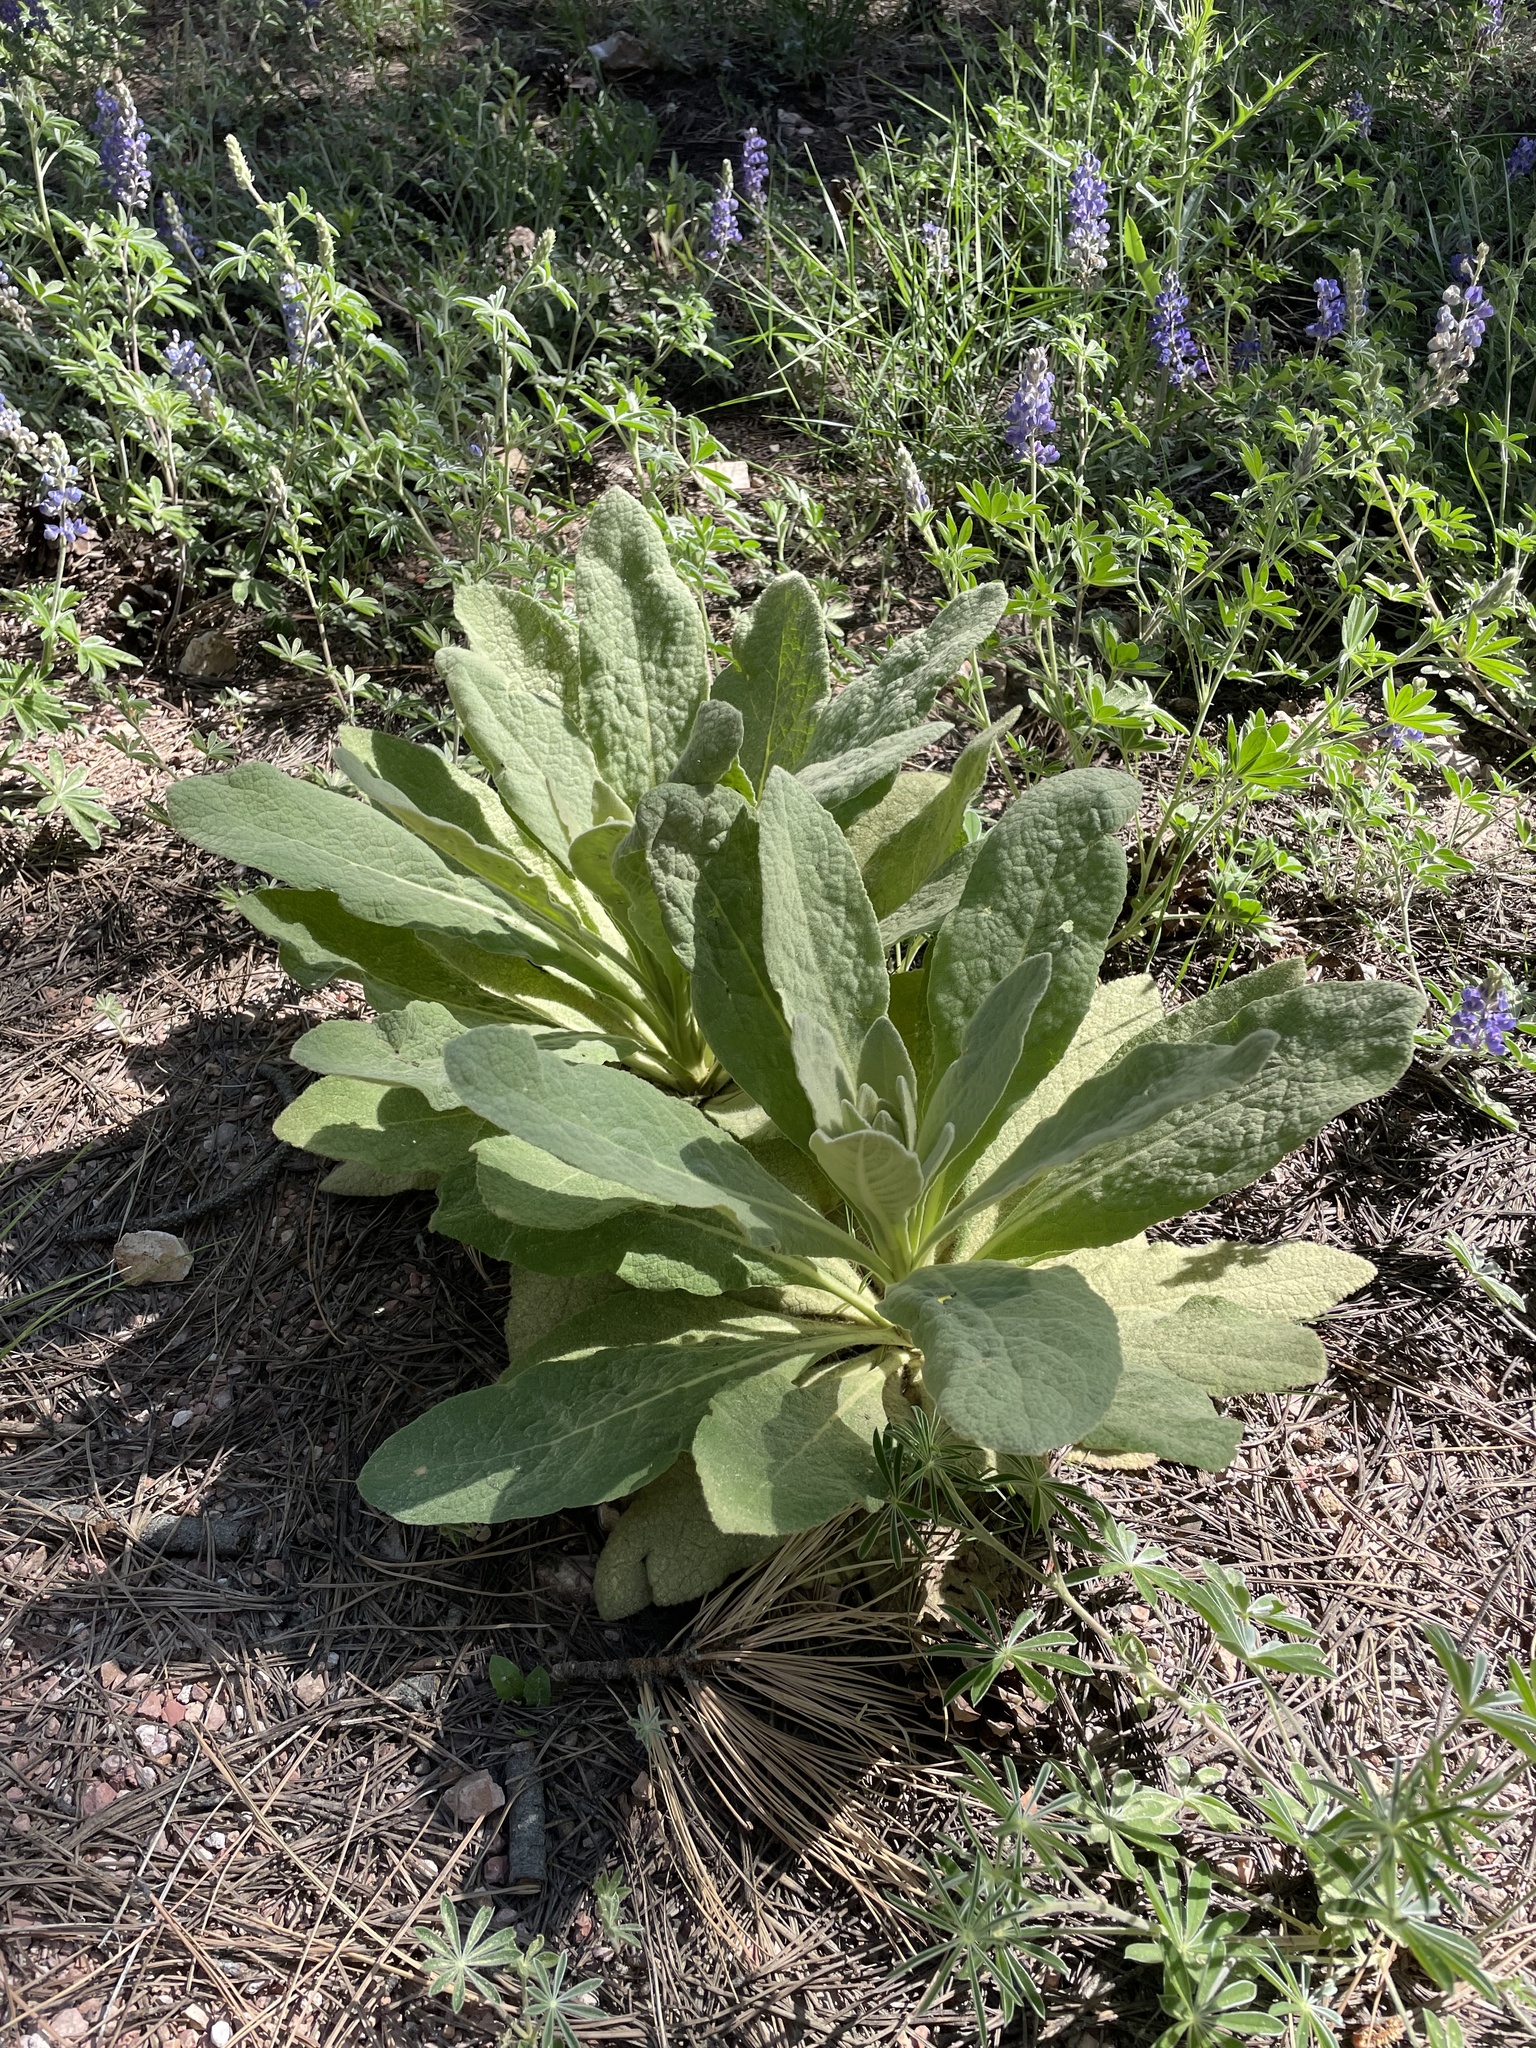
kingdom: Plantae
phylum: Tracheophyta
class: Magnoliopsida
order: Lamiales
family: Scrophulariaceae
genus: Verbascum
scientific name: Verbascum thapsus
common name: Common mullein
